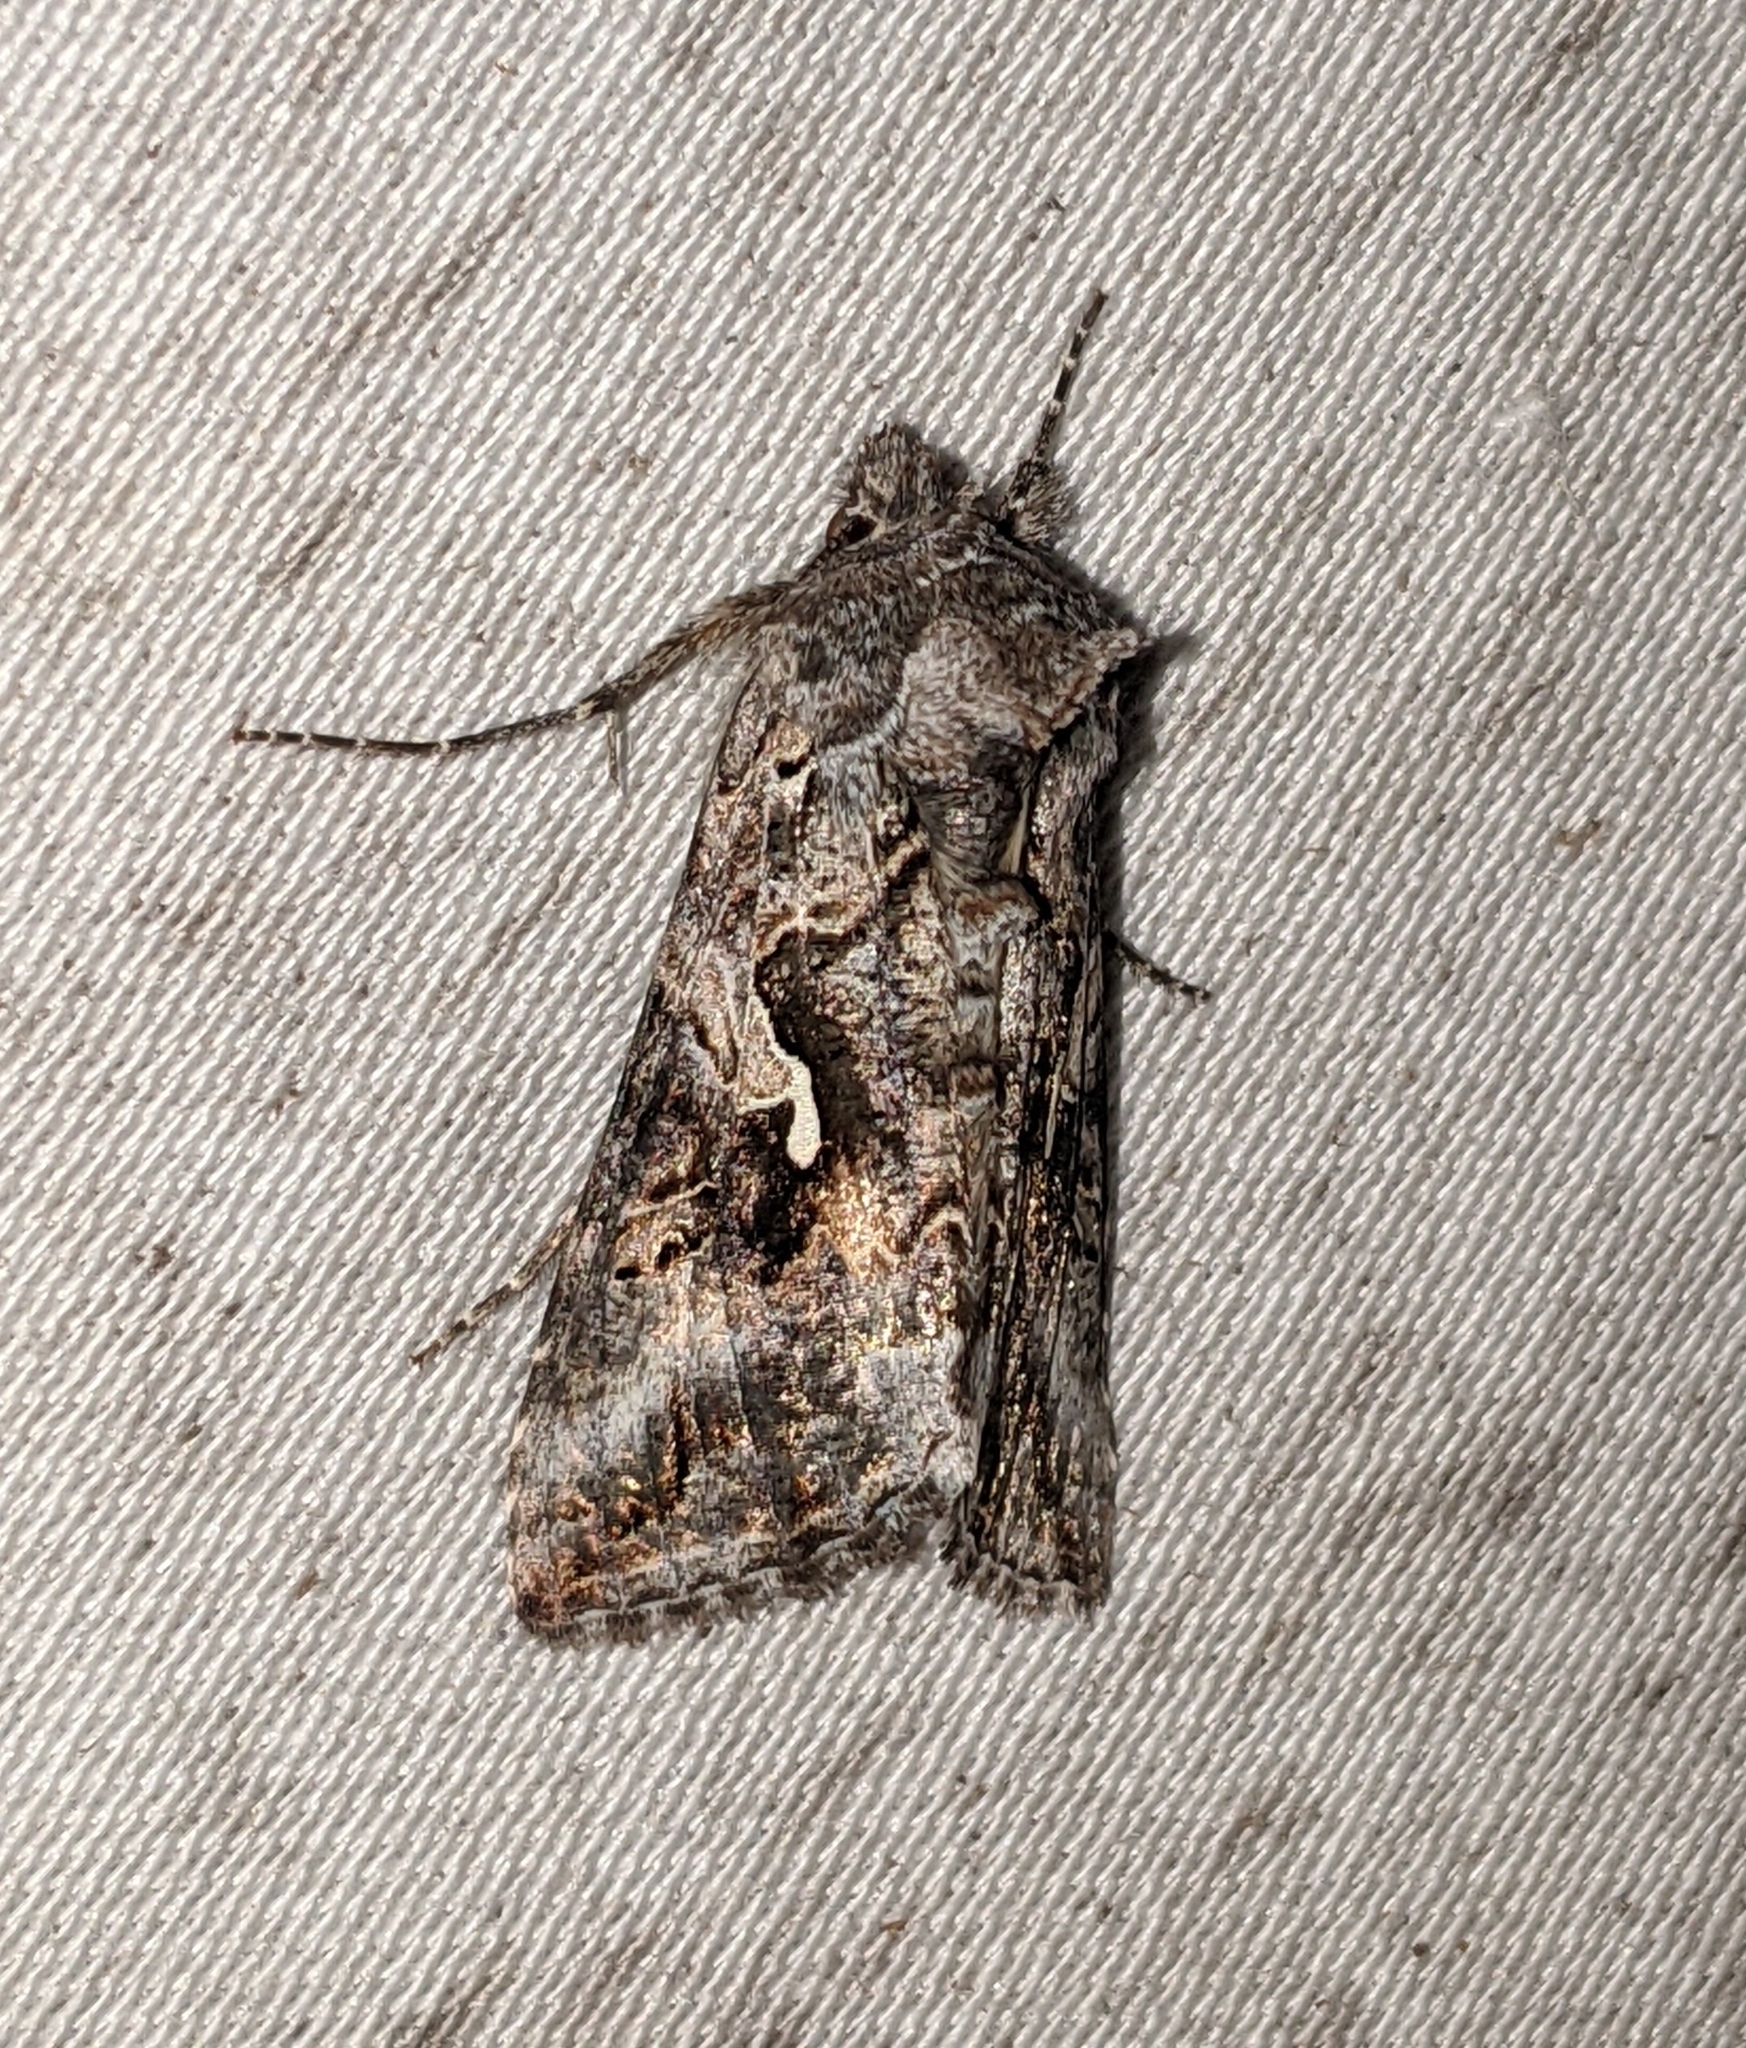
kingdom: Animalia
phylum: Arthropoda
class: Insecta
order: Lepidoptera
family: Noctuidae
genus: Autographa
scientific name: Autographa californica
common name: Alfalfa looper
